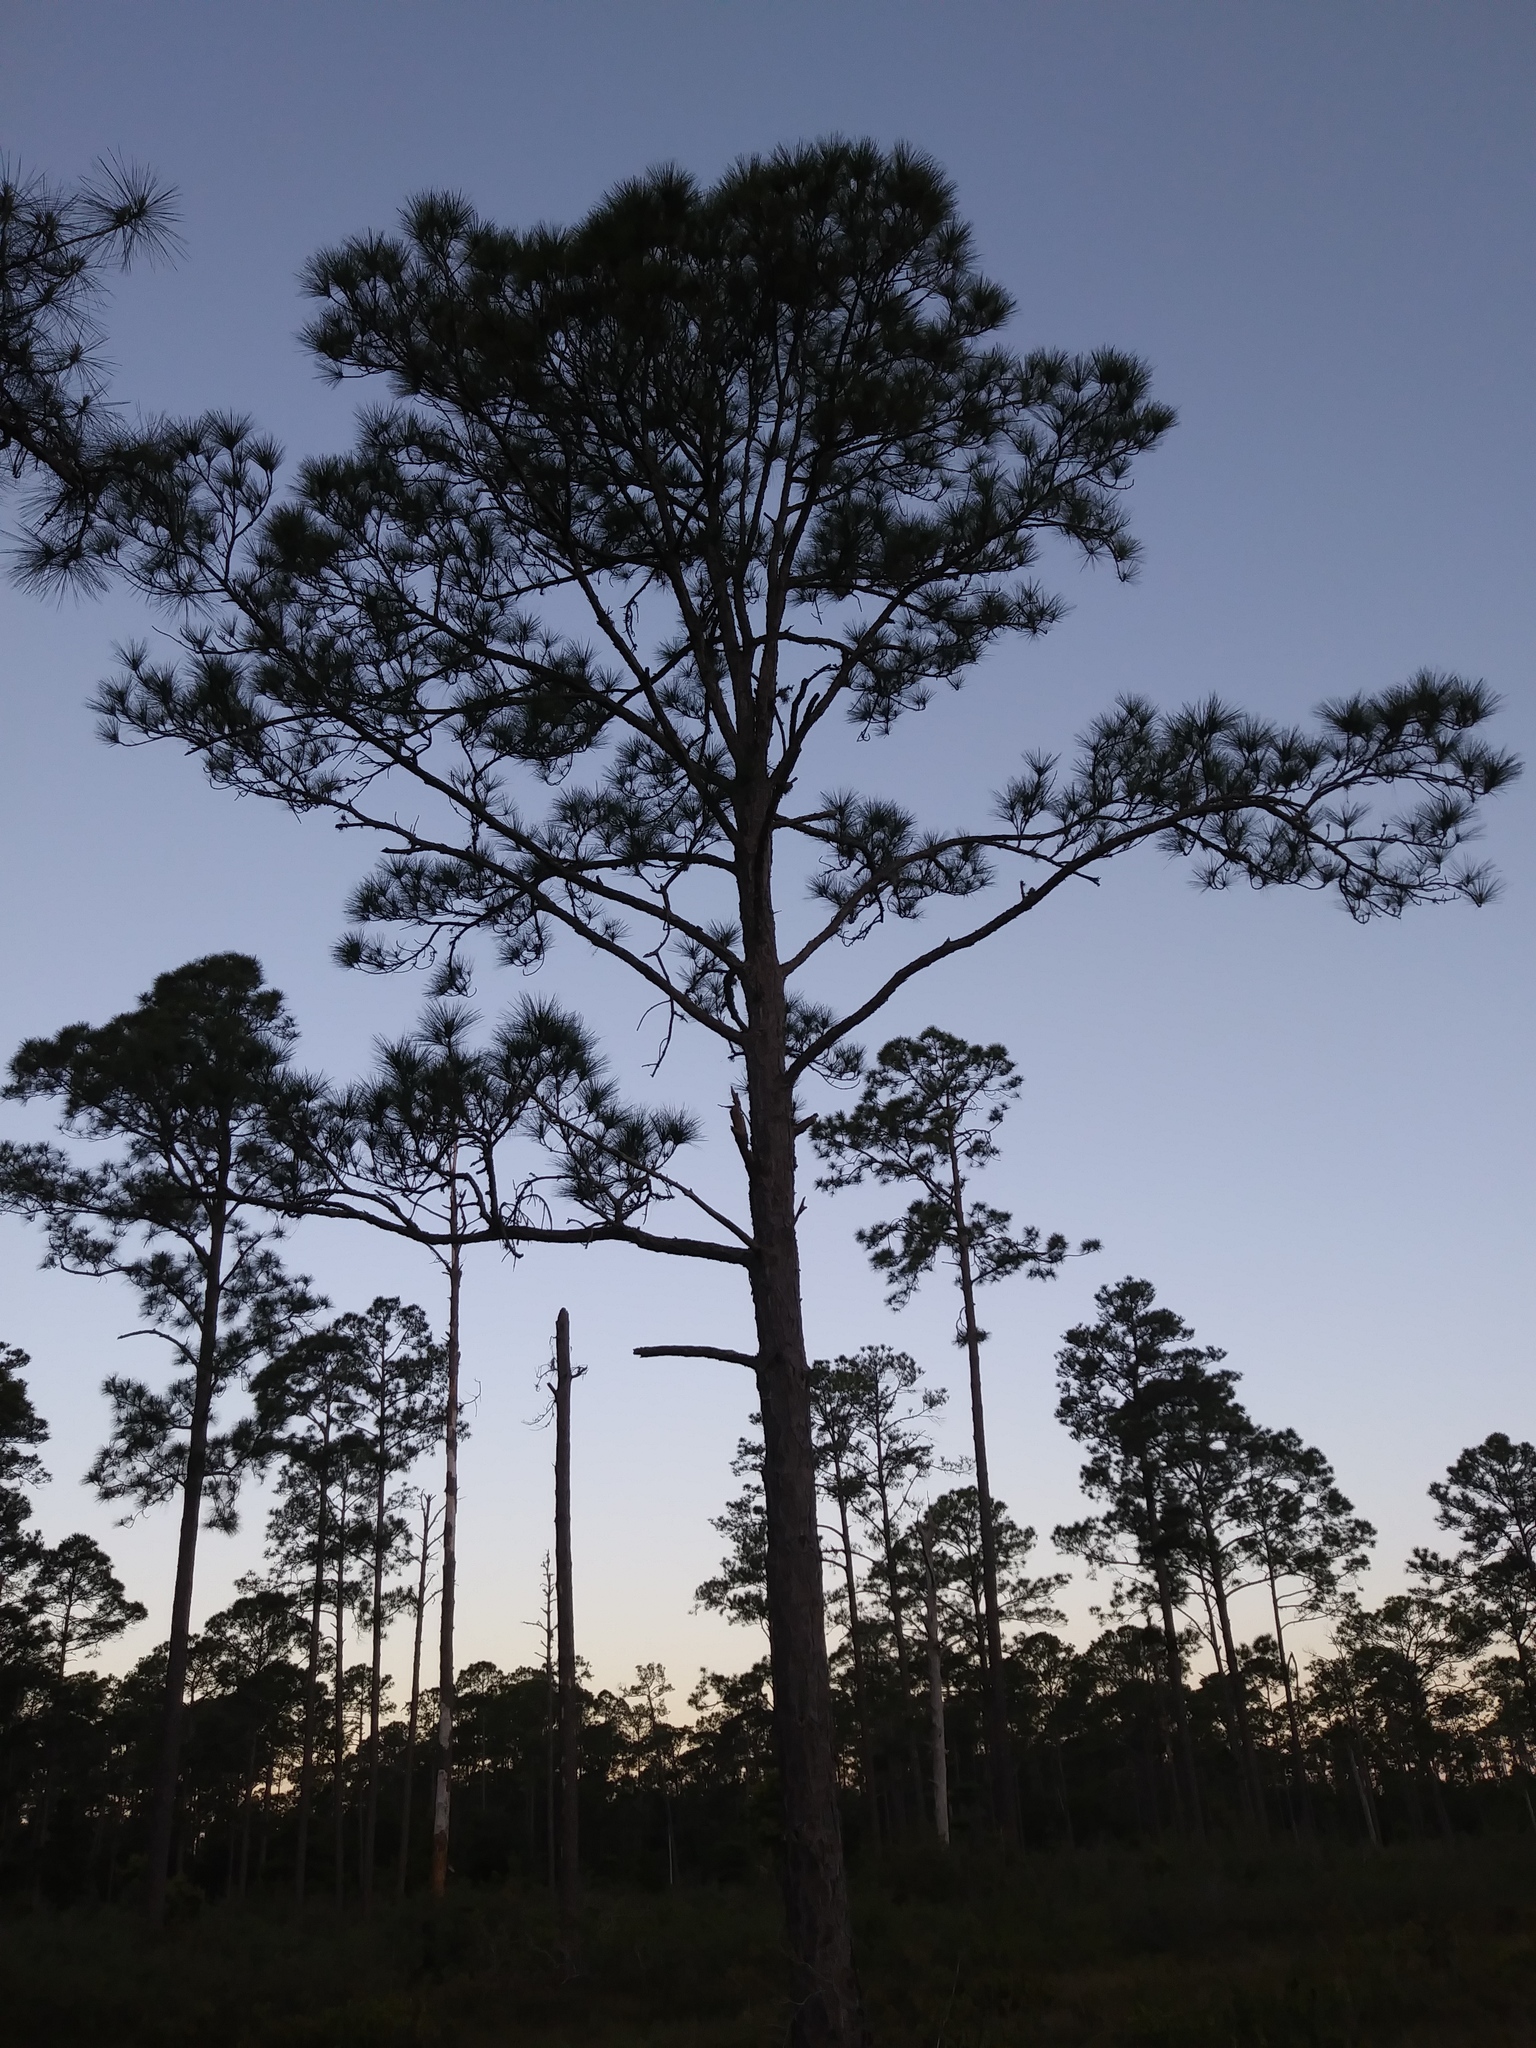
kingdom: Plantae
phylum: Tracheophyta
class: Pinopsida
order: Pinales
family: Pinaceae
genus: Pinus
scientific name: Pinus elliottii
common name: Slash pine
